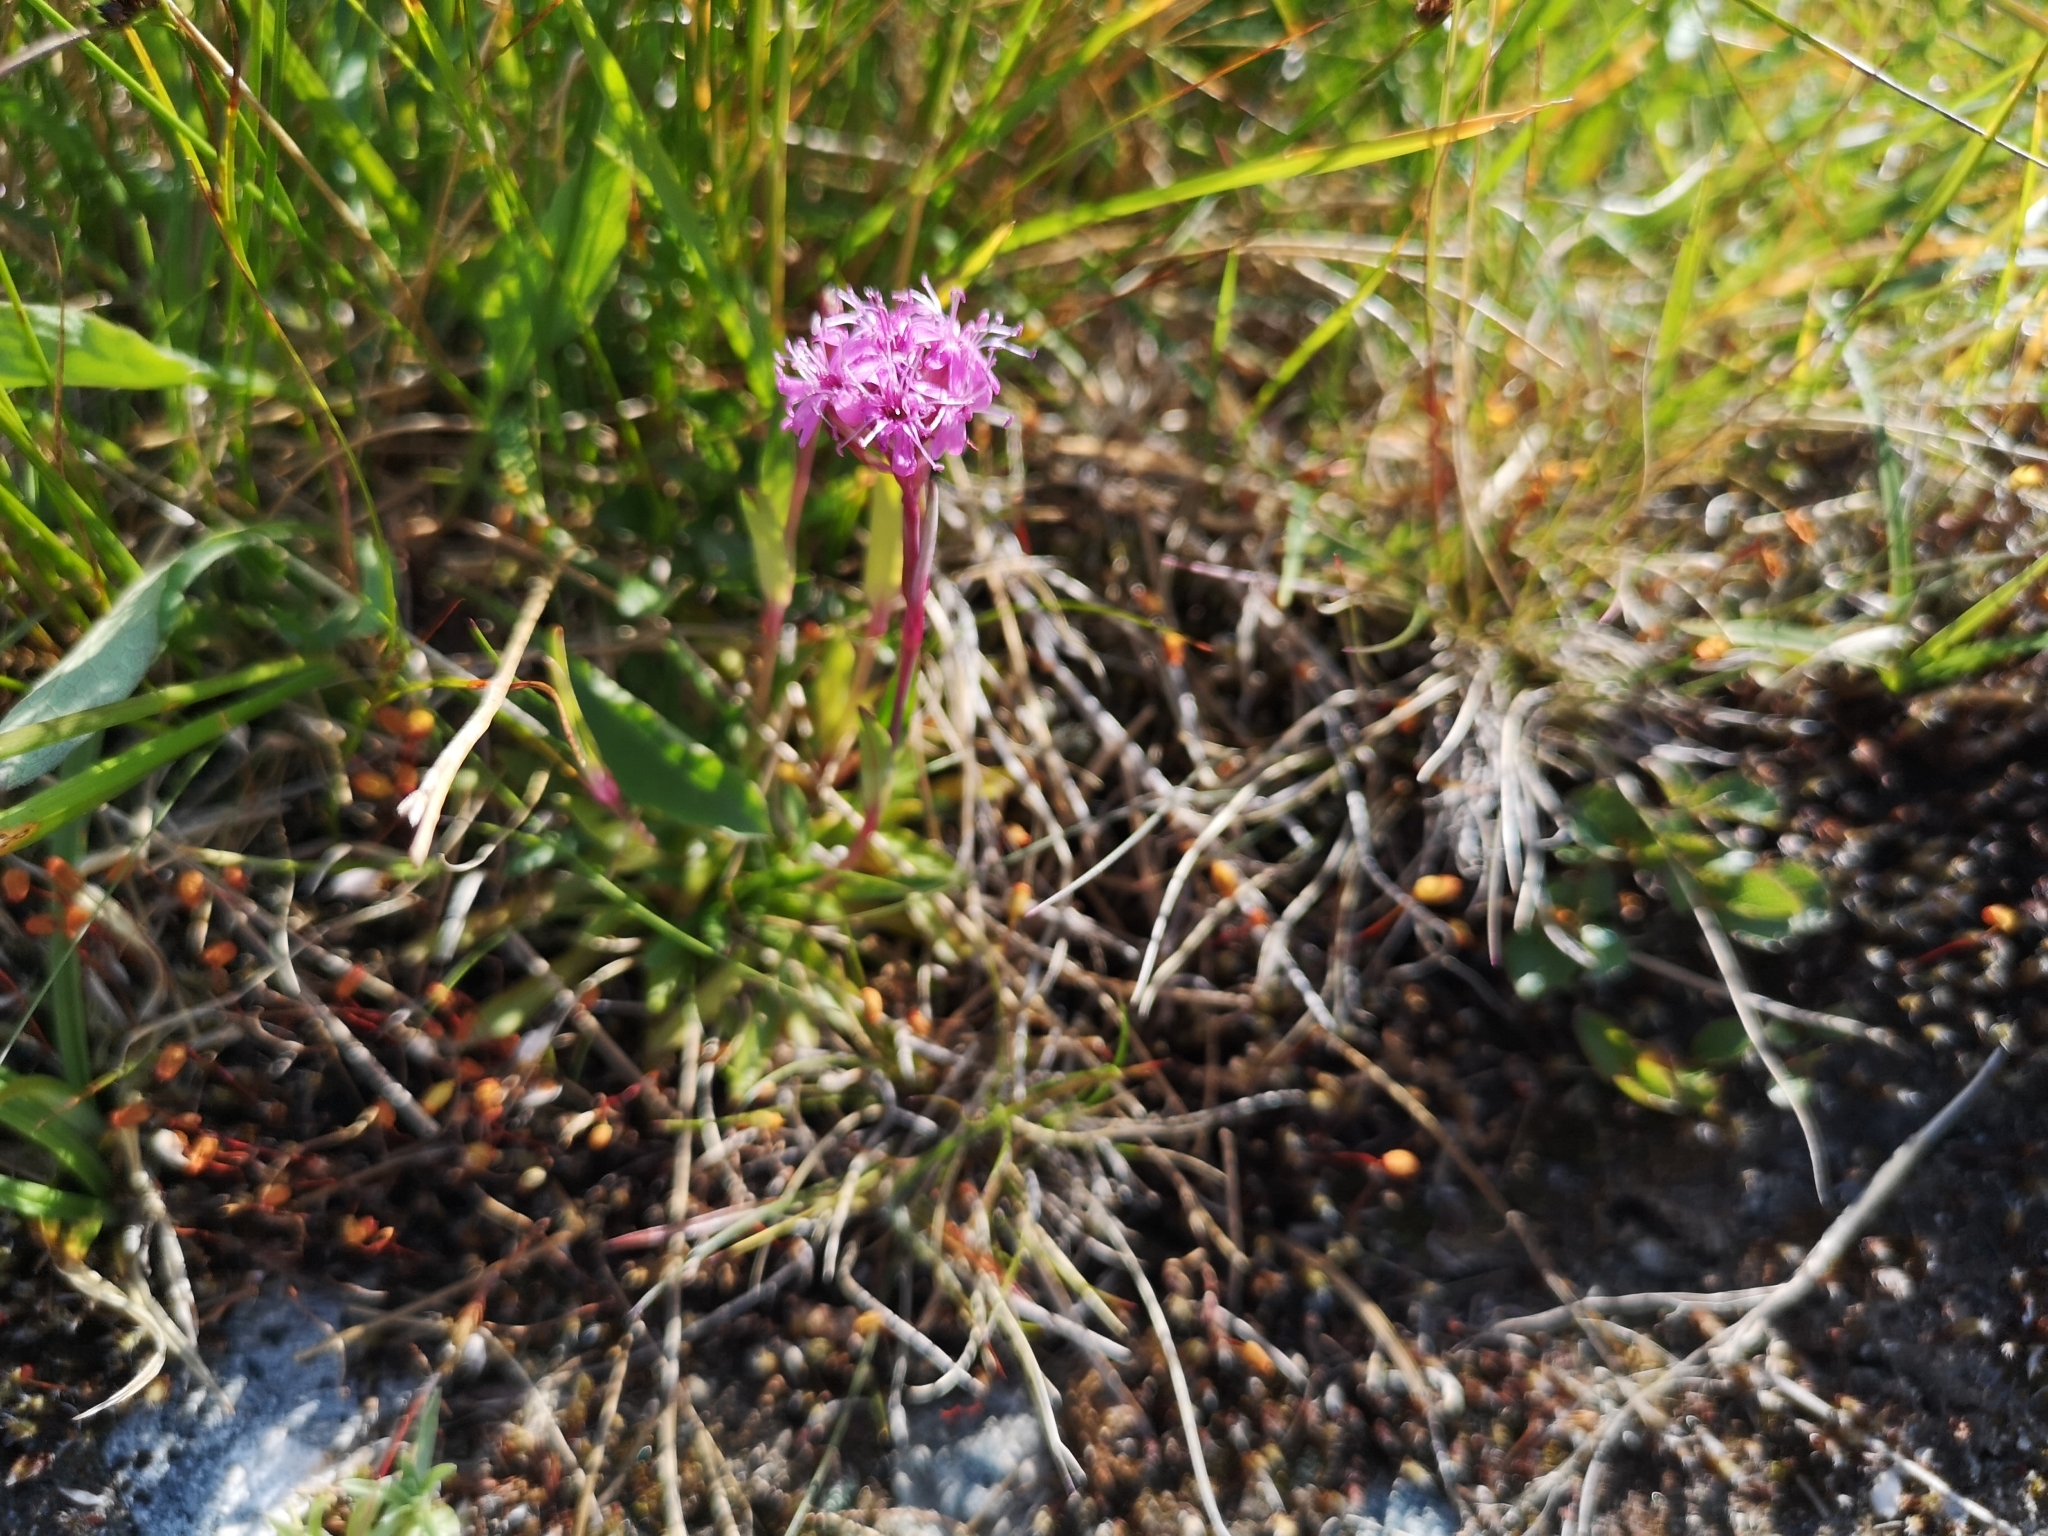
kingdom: Plantae
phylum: Tracheophyta
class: Magnoliopsida
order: Caryophyllales
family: Caryophyllaceae
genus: Viscaria
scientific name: Viscaria alpina
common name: Alpine campion
